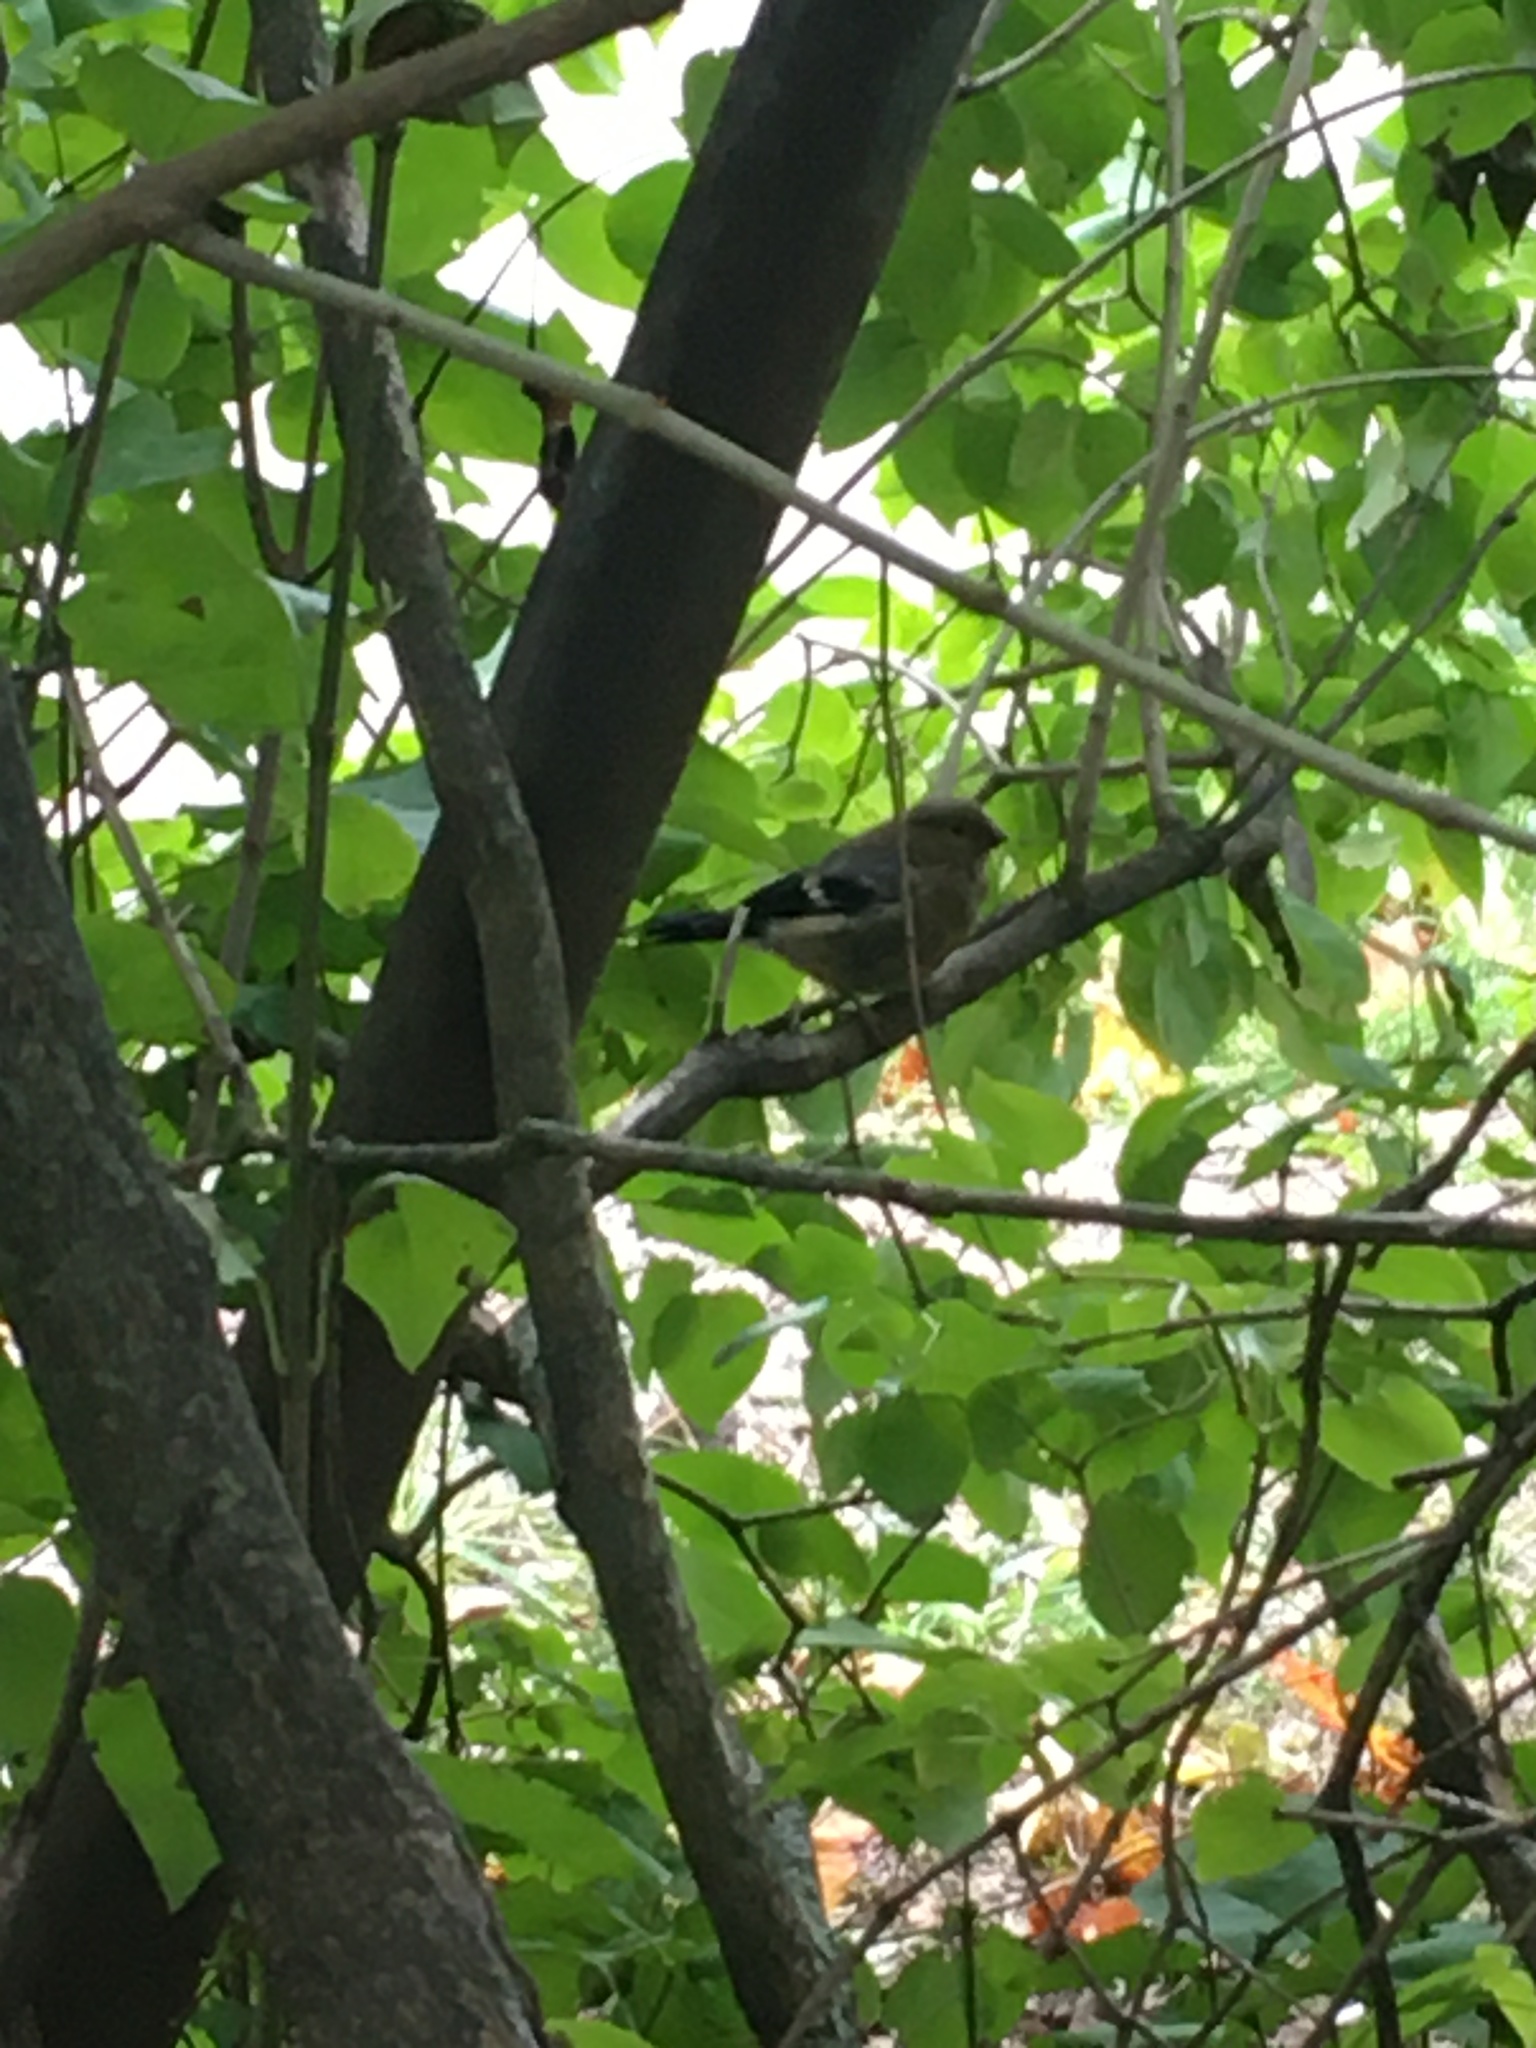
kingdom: Animalia
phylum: Chordata
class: Aves
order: Passeriformes
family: Fringillidae
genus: Pyrrhula
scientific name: Pyrrhula pyrrhula
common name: Eurasian bullfinch
